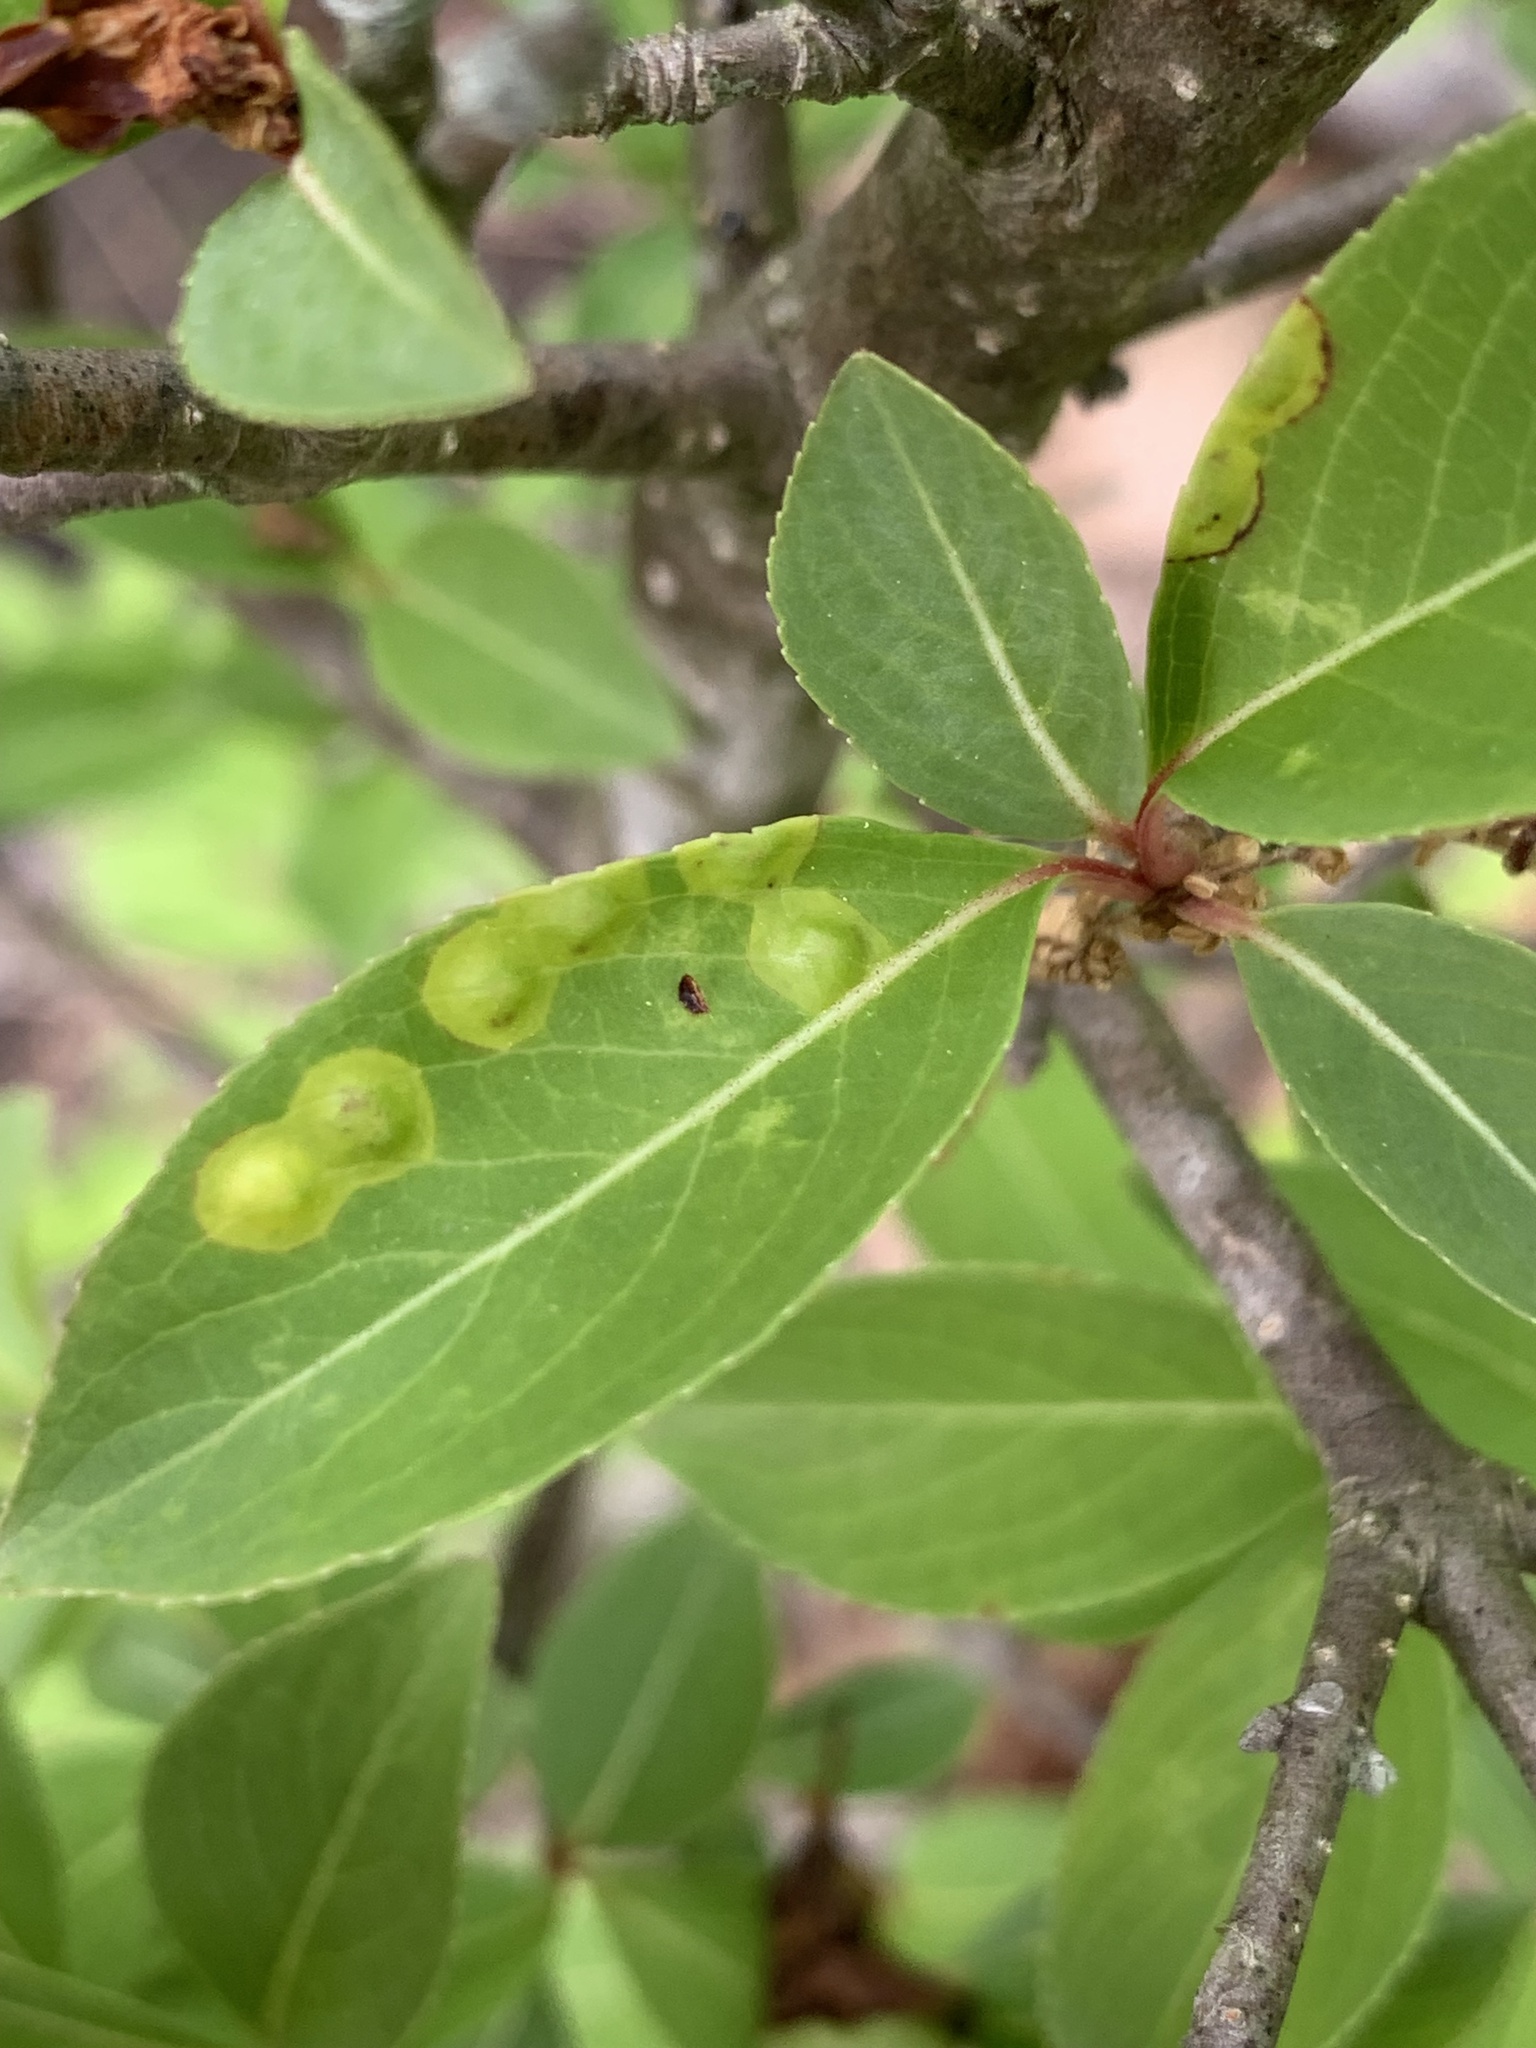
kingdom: Animalia
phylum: Arthropoda
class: Insecta
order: Diptera
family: Cecidomyiidae
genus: Sackenomyia
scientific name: Sackenomyia commota
